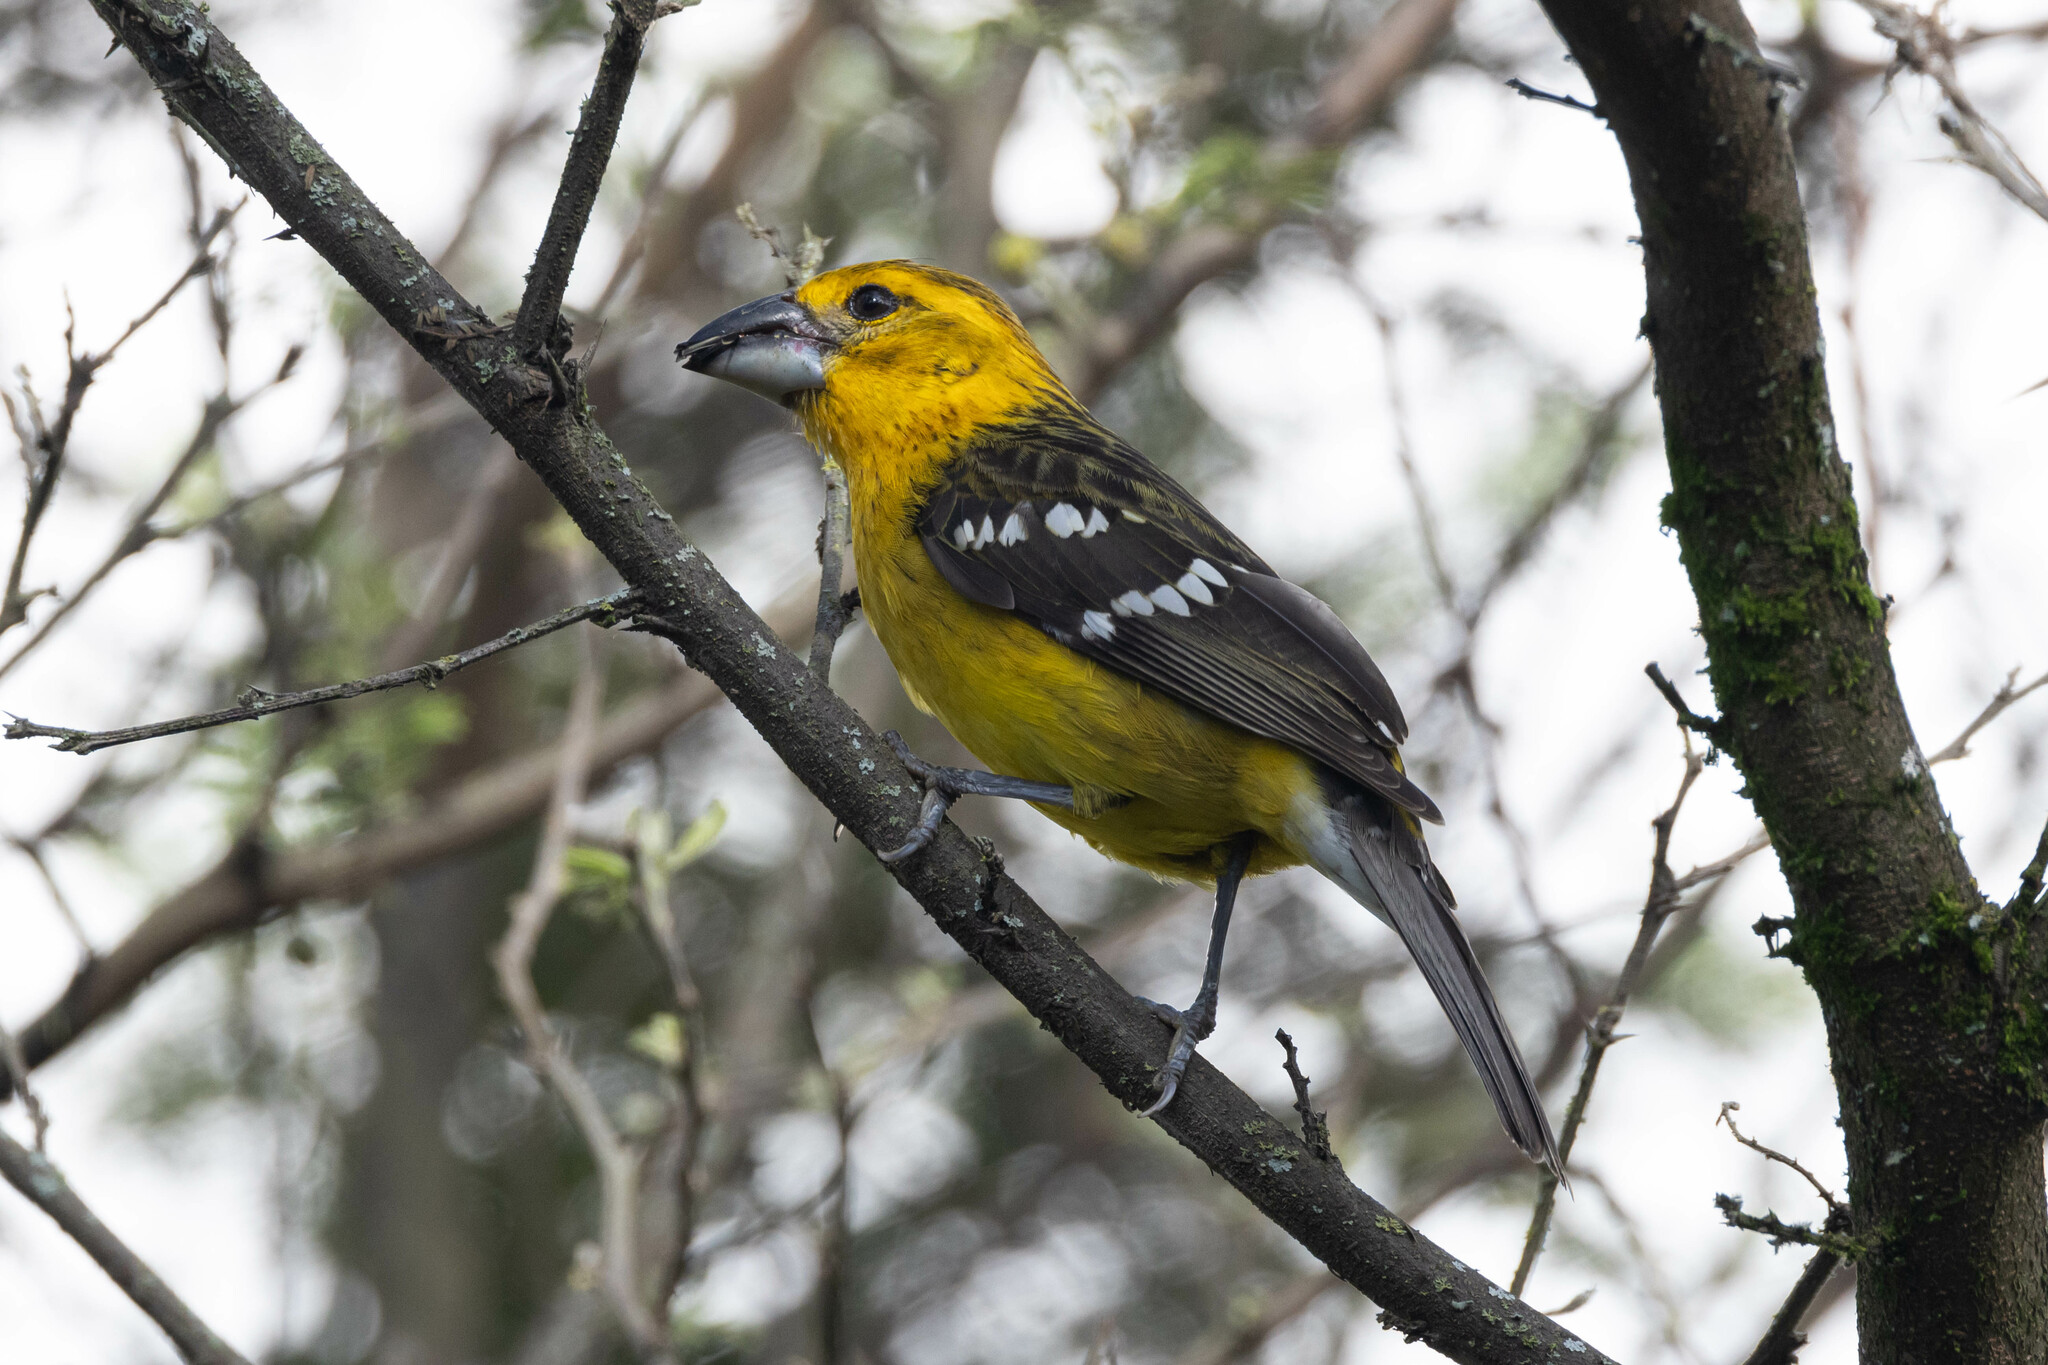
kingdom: Animalia
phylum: Chordata
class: Aves
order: Passeriformes
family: Cardinalidae
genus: Pheucticus
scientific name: Pheucticus chrysogaster
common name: Golden grosbeak
